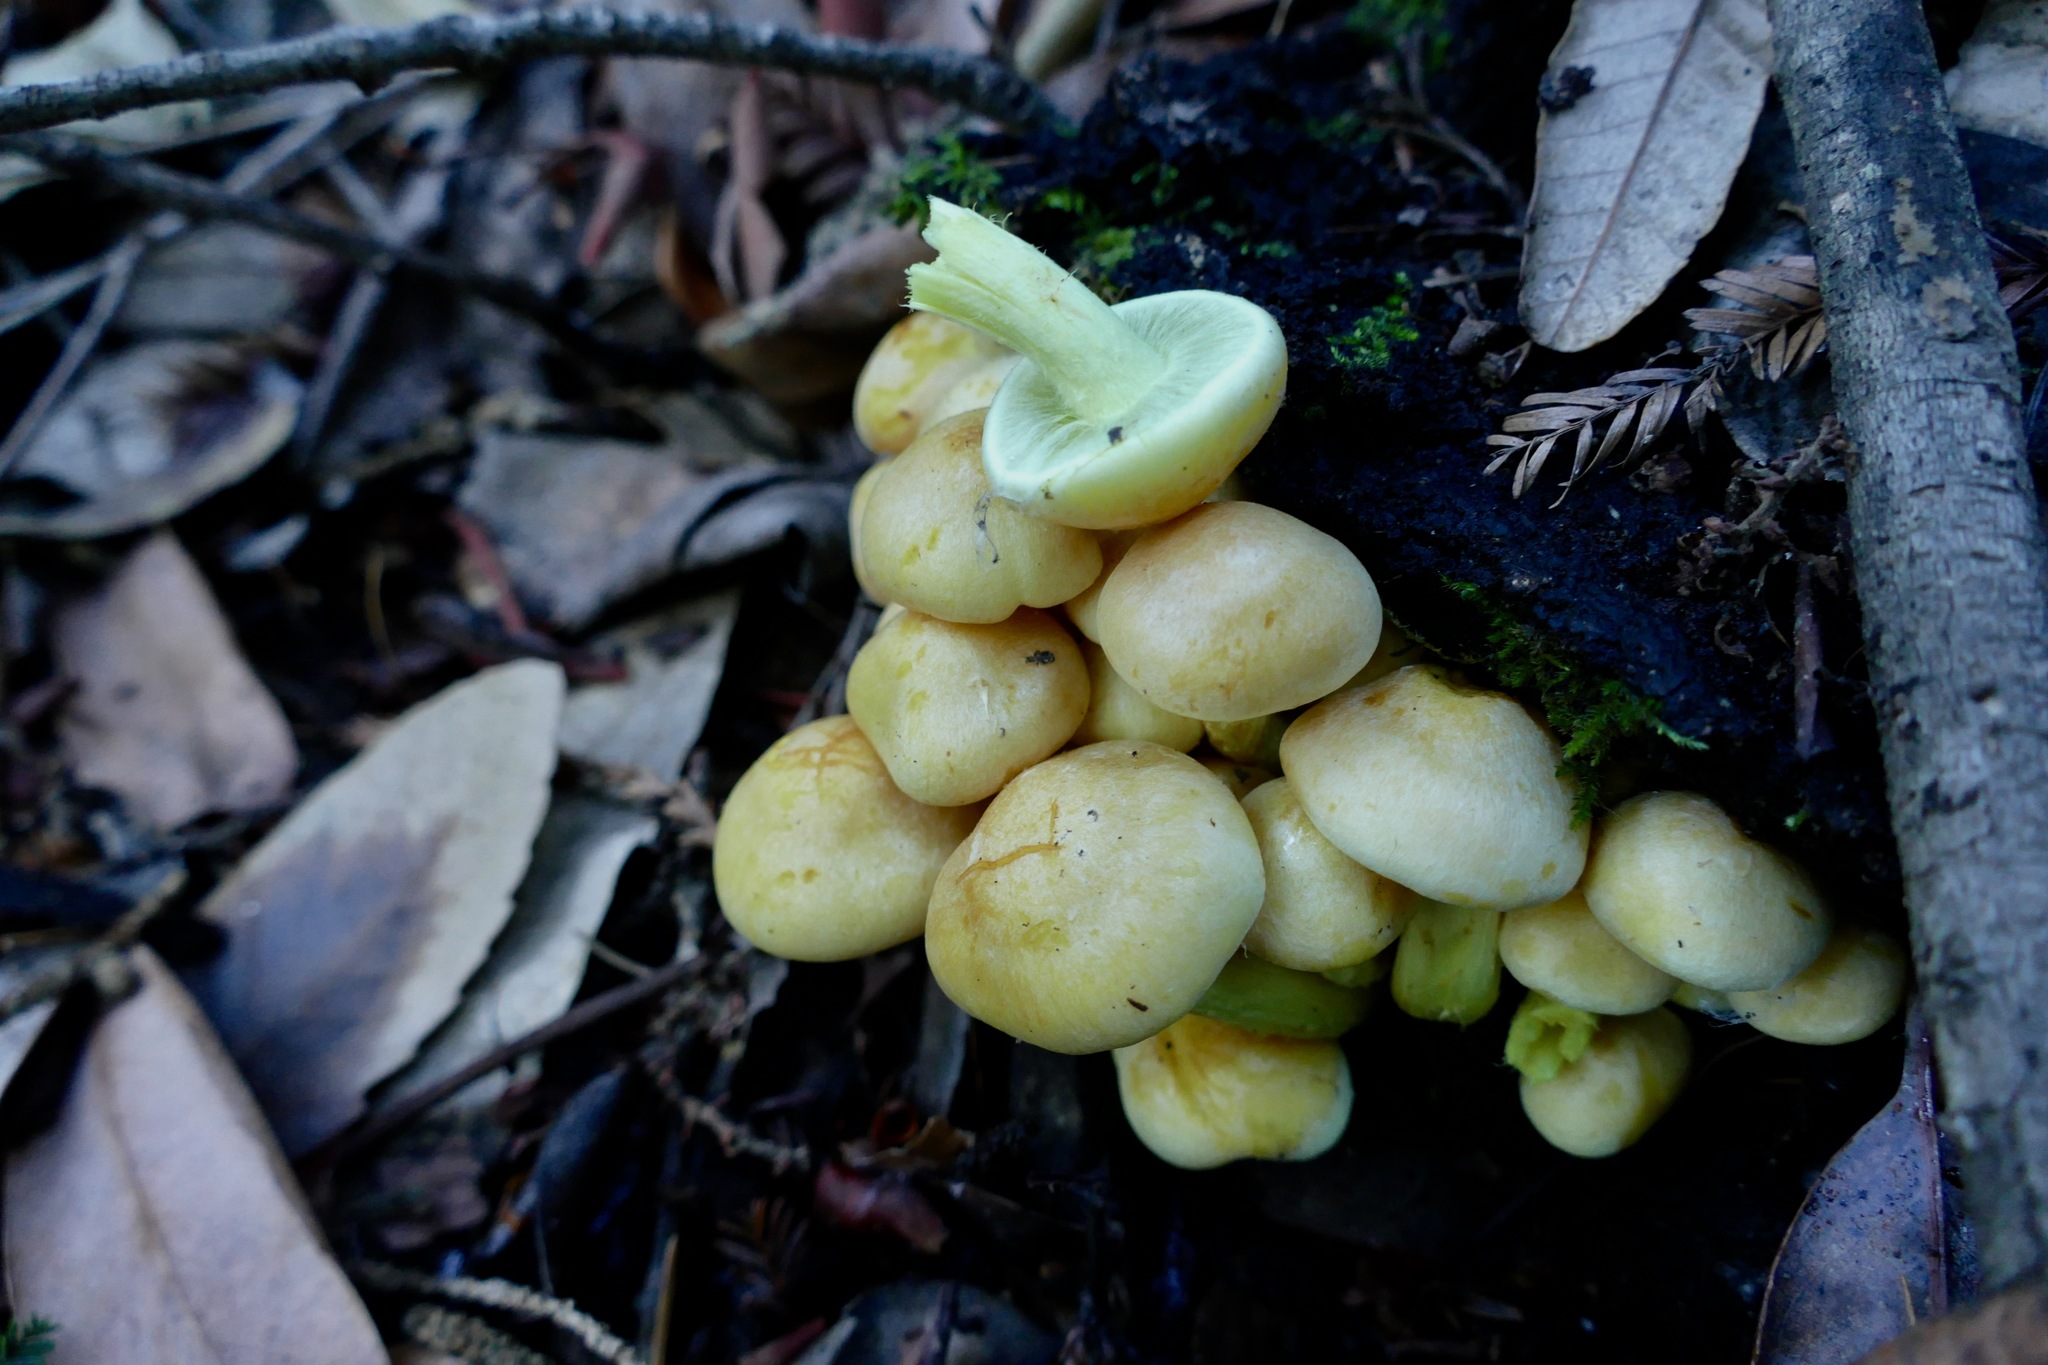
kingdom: Fungi
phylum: Basidiomycota
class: Agaricomycetes
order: Agaricales
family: Strophariaceae
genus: Hypholoma
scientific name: Hypholoma fasciculare
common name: Sulphur tuft
